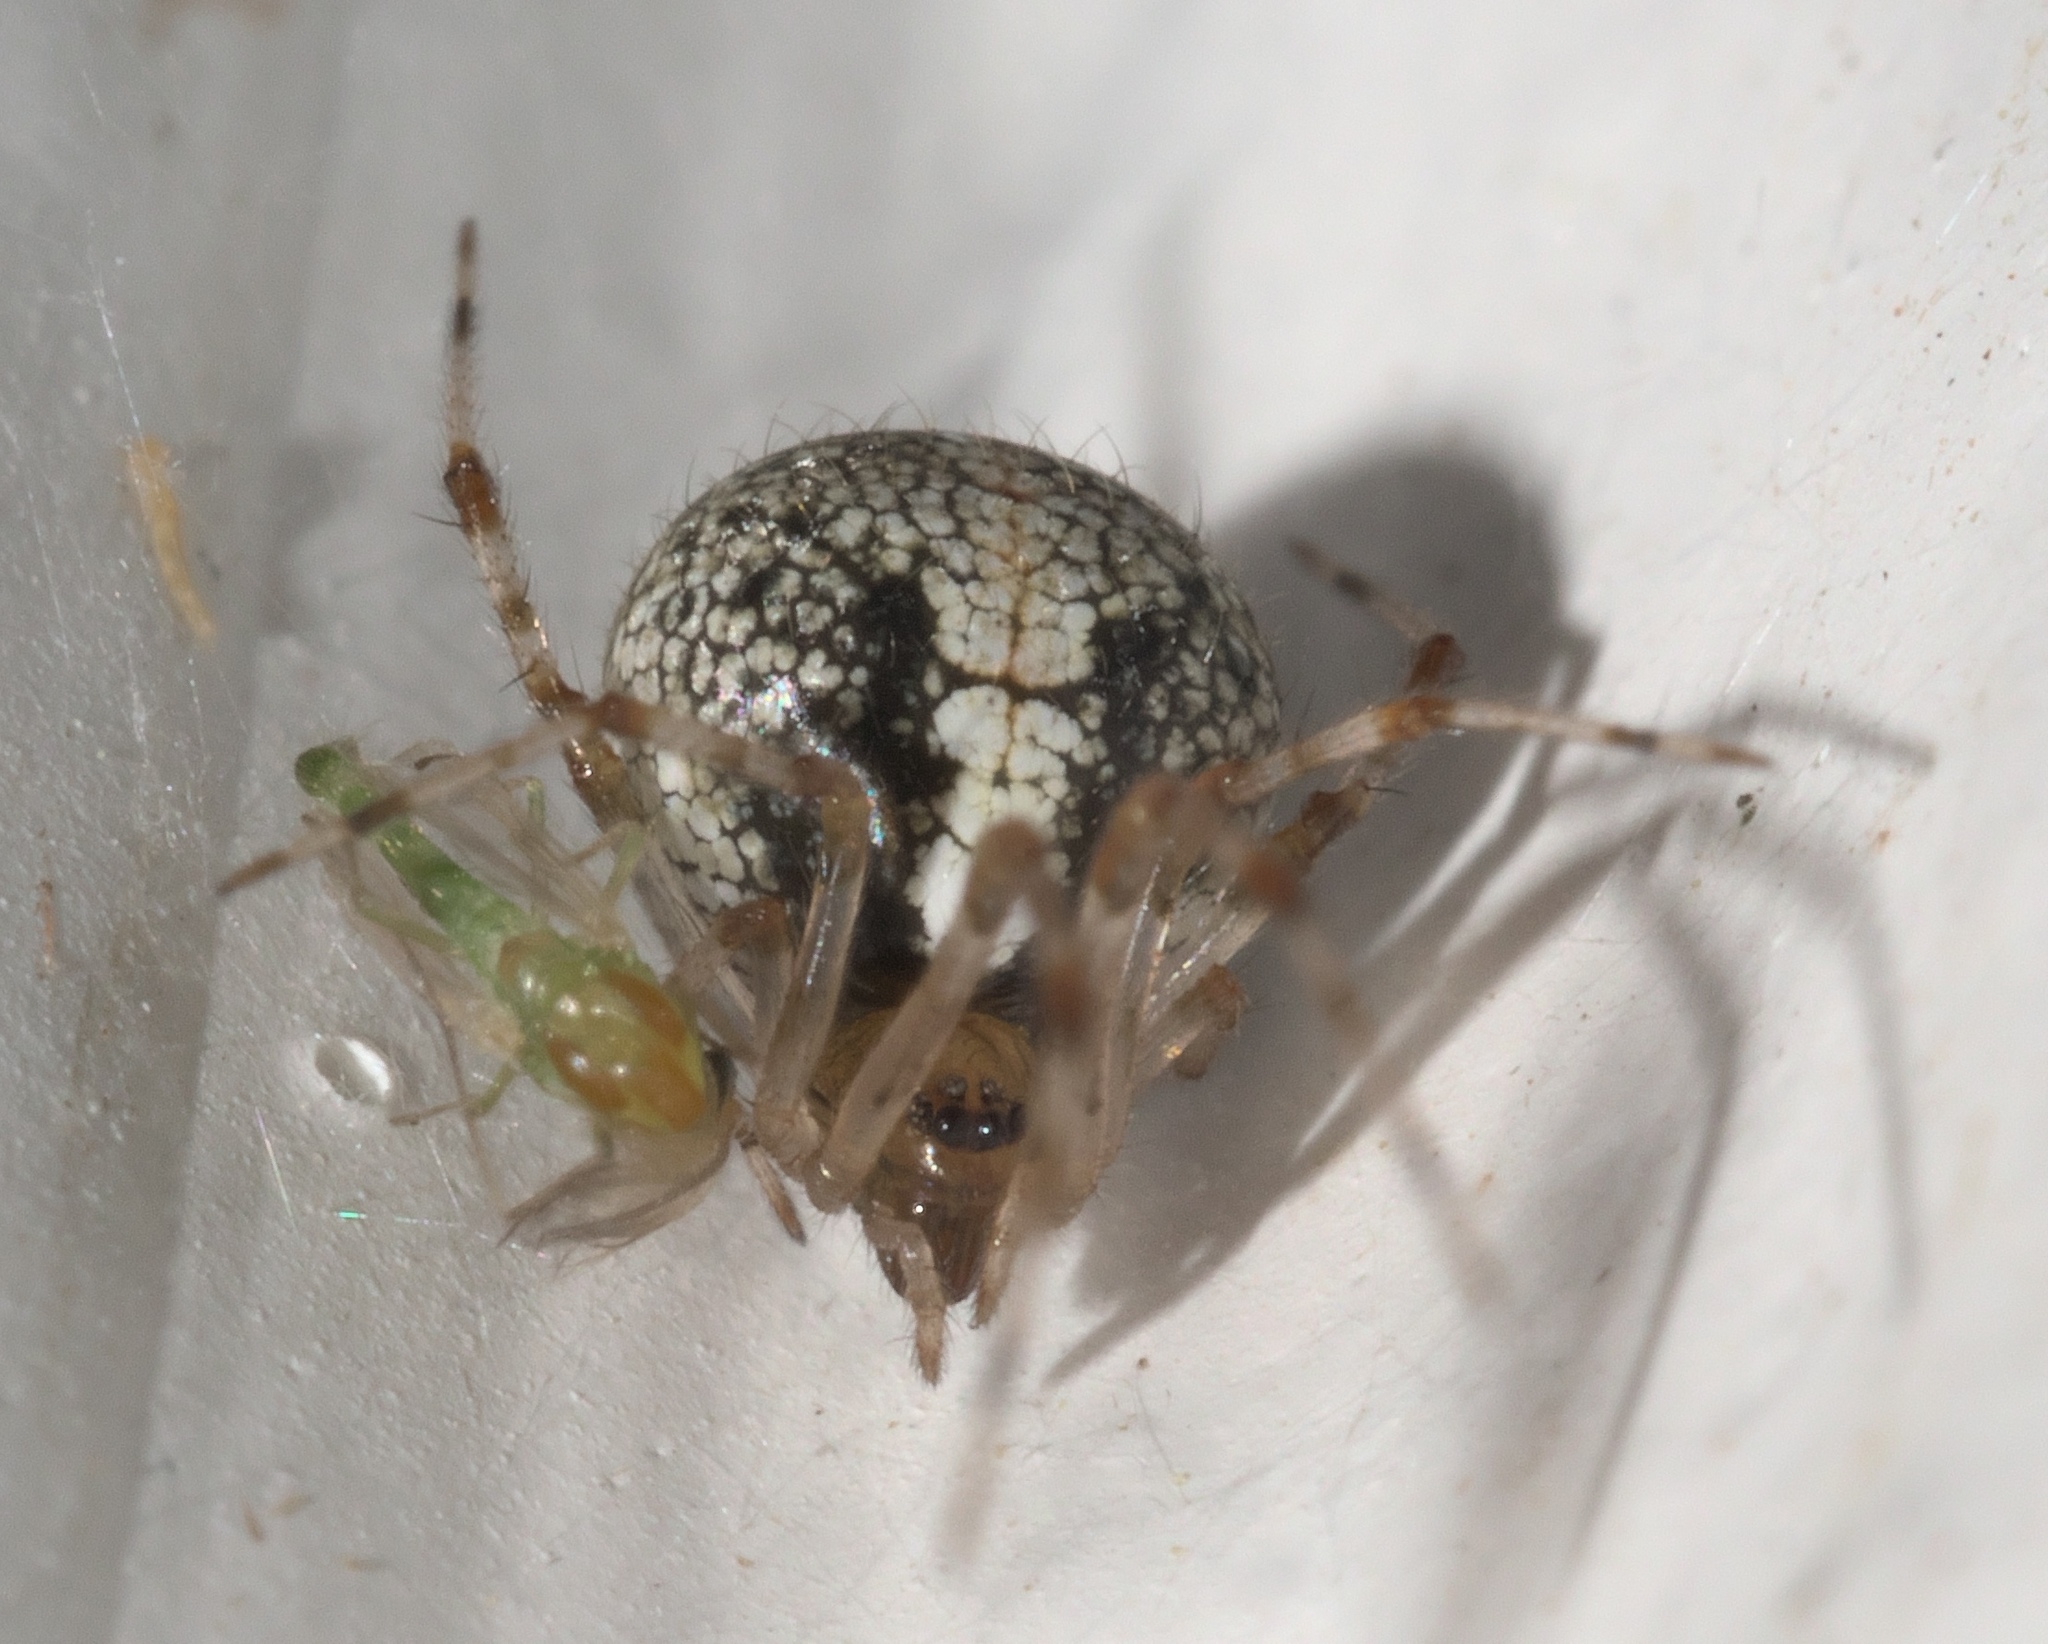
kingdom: Animalia
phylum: Arthropoda
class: Arachnida
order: Araneae
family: Theridiidae
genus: Yunohamella
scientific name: Yunohamella lyrica
